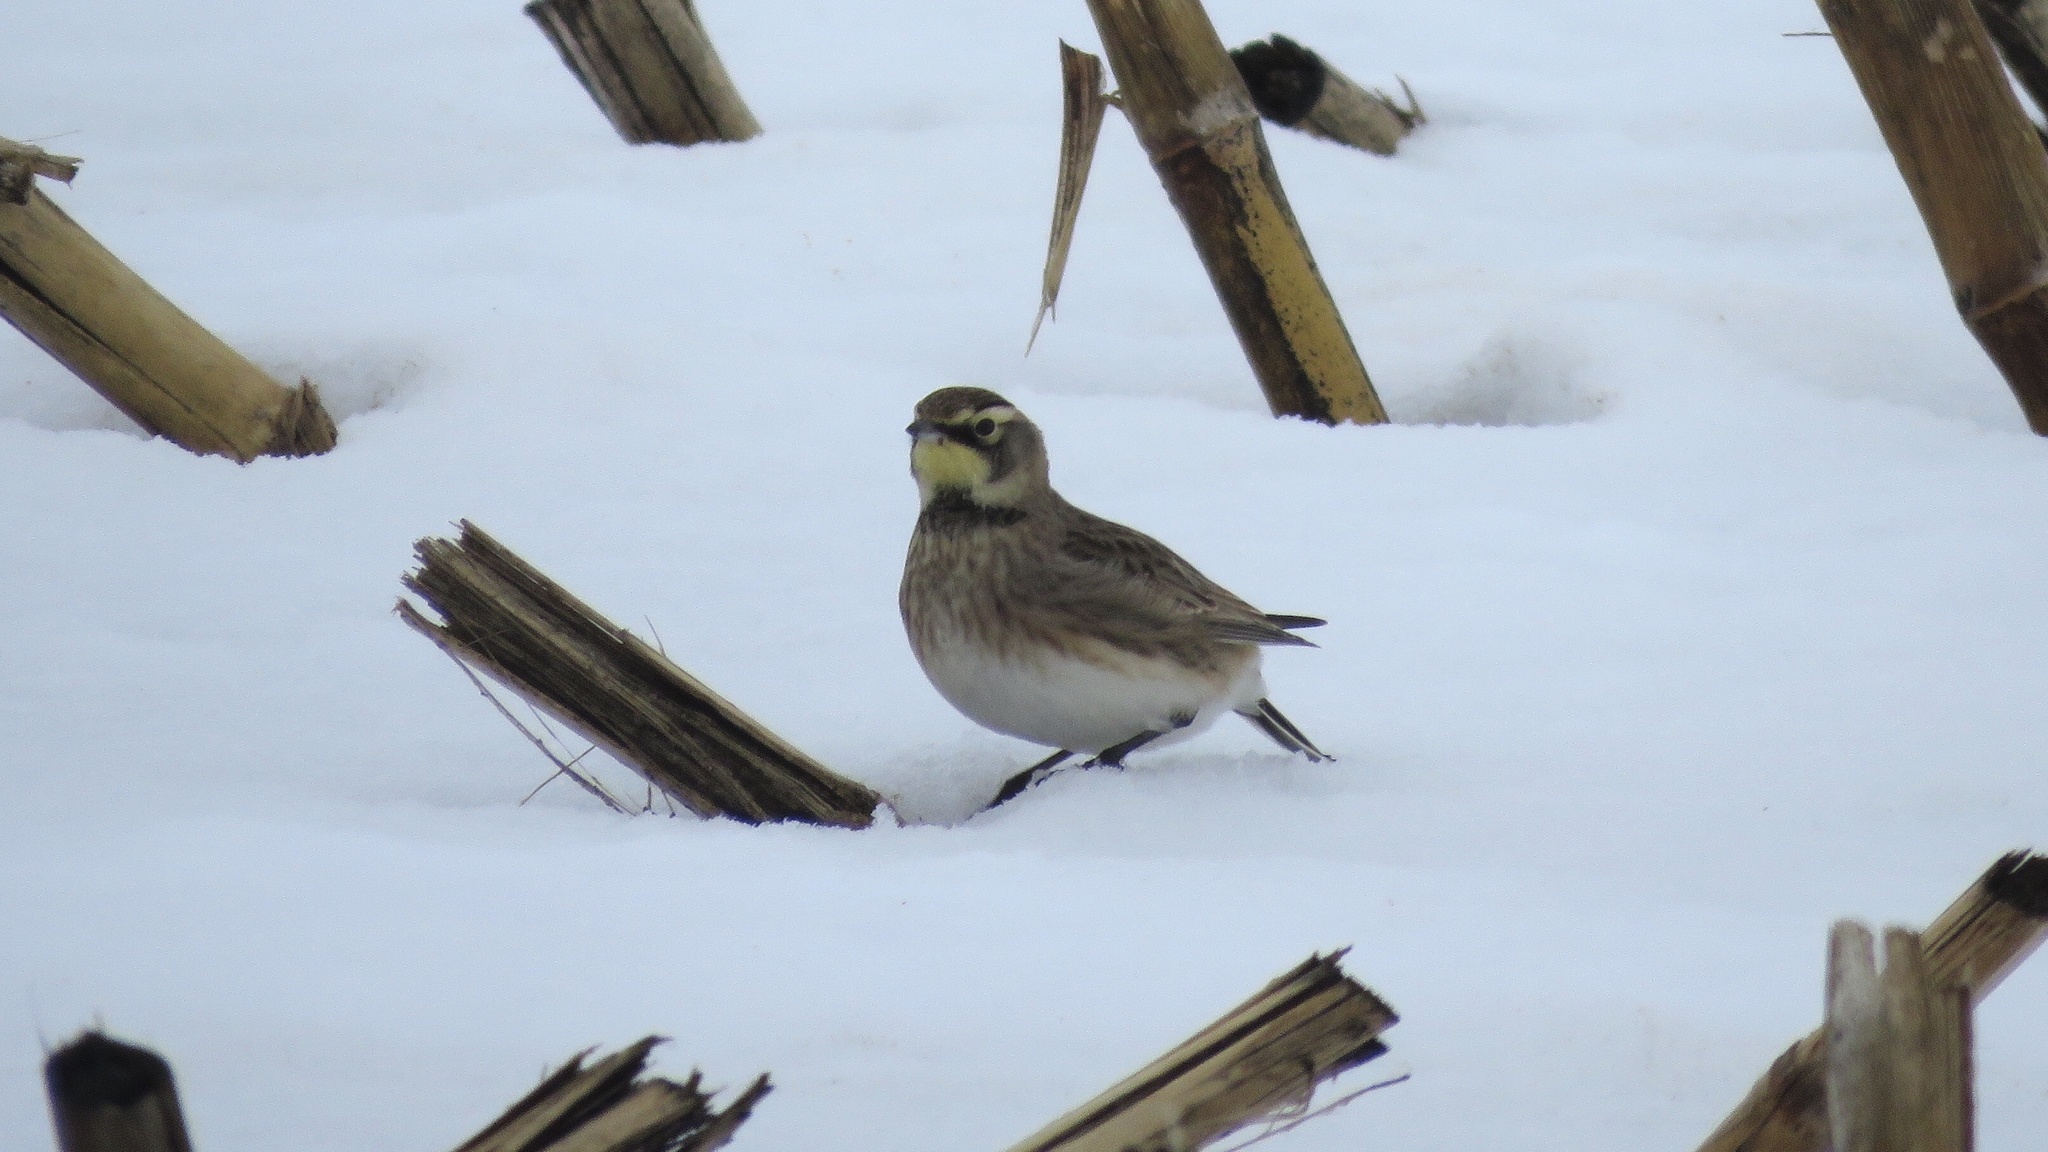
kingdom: Animalia
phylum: Chordata
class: Aves
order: Passeriformes
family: Alaudidae
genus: Eremophila
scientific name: Eremophila alpestris
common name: Horned lark
